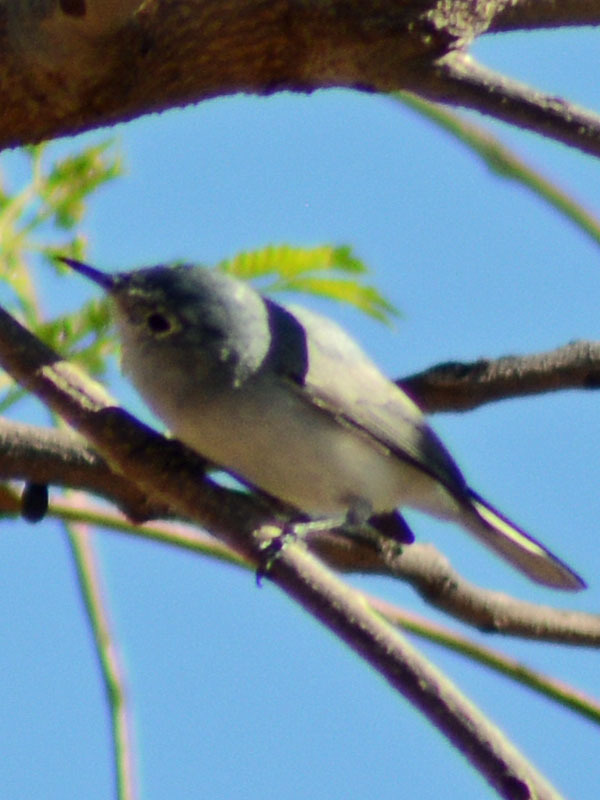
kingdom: Animalia
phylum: Chordata
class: Aves
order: Passeriformes
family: Polioptilidae
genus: Polioptila
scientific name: Polioptila caerulea
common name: Blue-gray gnatcatcher
